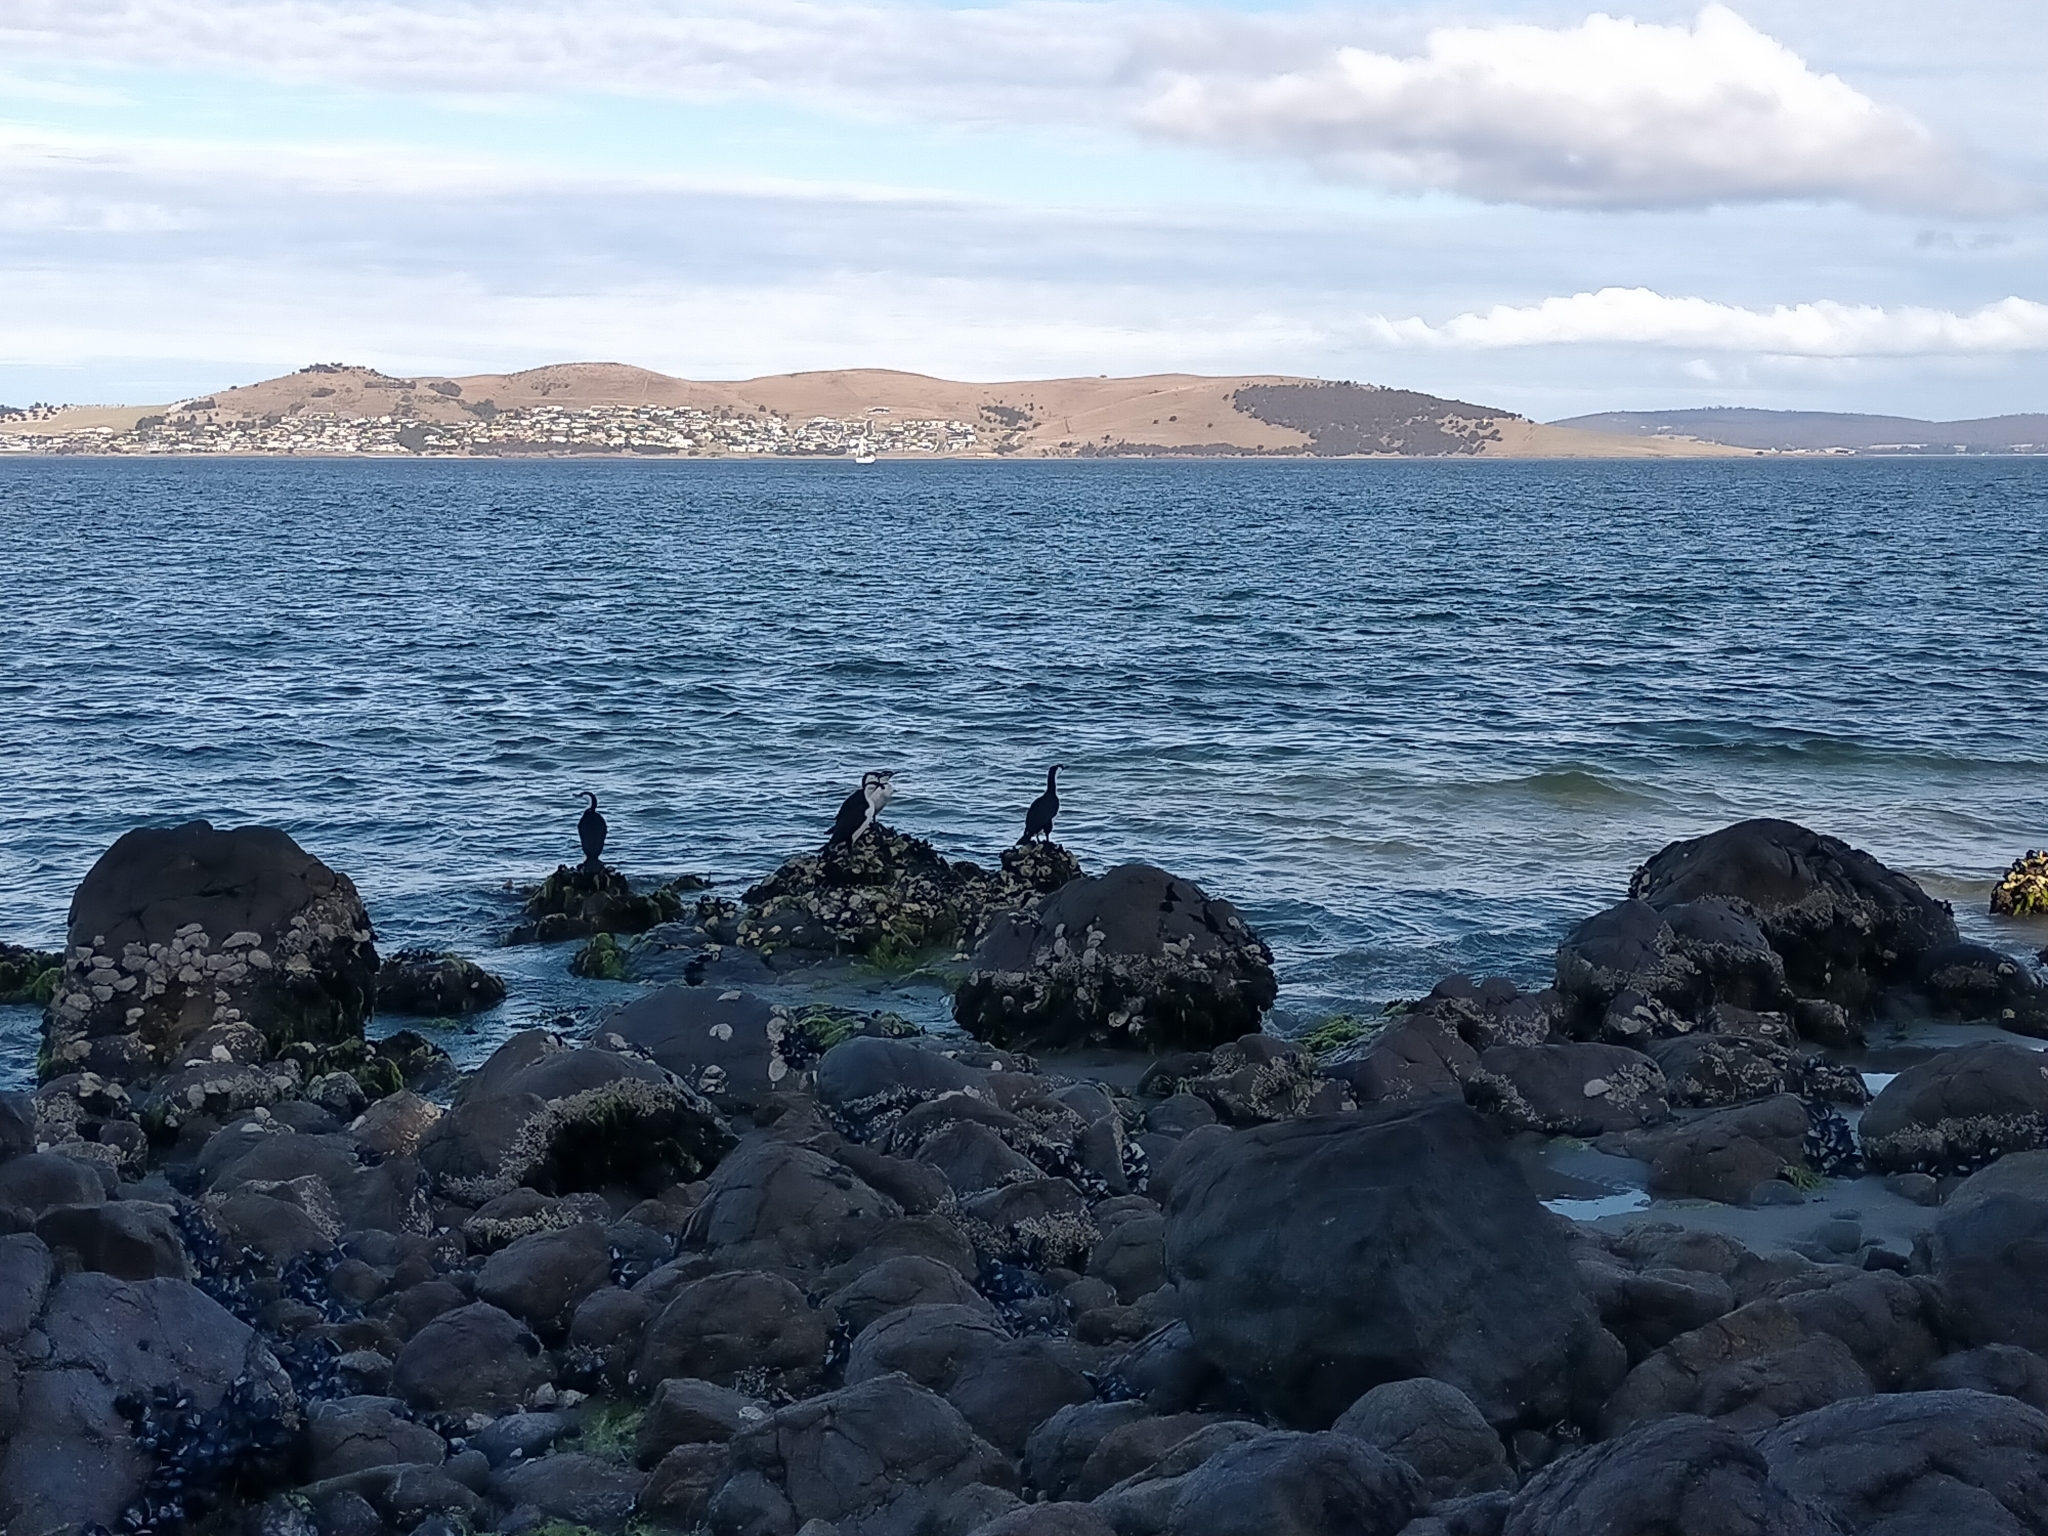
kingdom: Animalia
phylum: Chordata
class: Aves
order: Suliformes
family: Phalacrocoracidae
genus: Phalacrocorax
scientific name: Phalacrocorax fuscescens
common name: Black-faced cormorant
